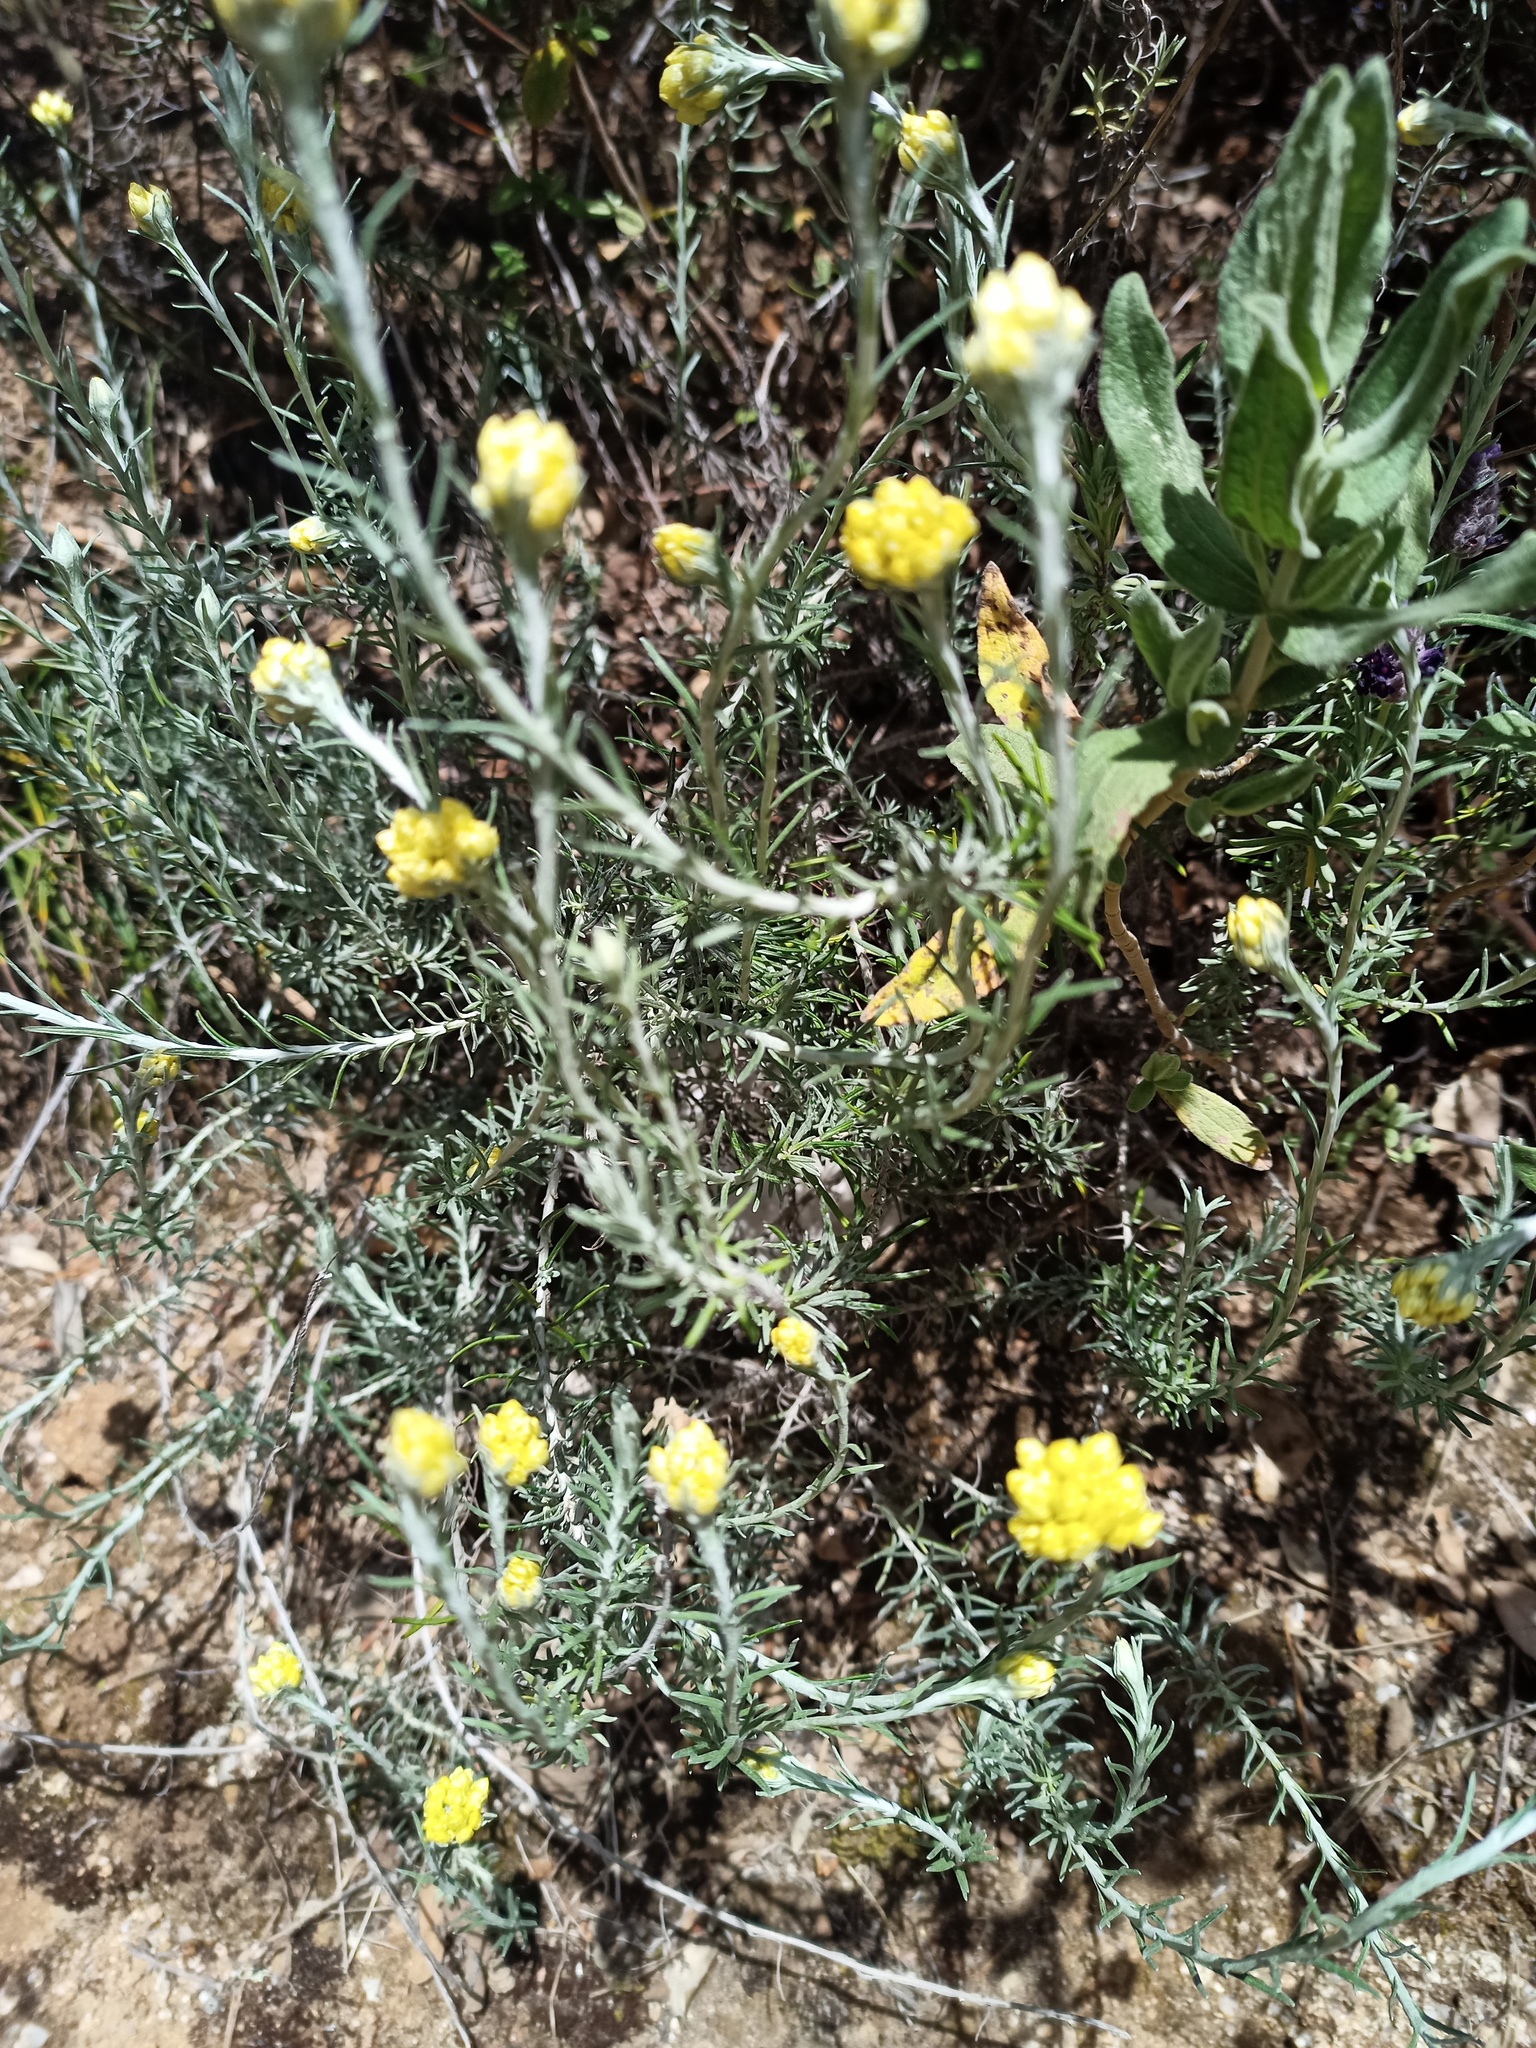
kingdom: Plantae
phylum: Tracheophyta
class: Magnoliopsida
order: Asterales
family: Asteraceae
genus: Helichrysum
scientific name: Helichrysum stoechas
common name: Goldilocks
